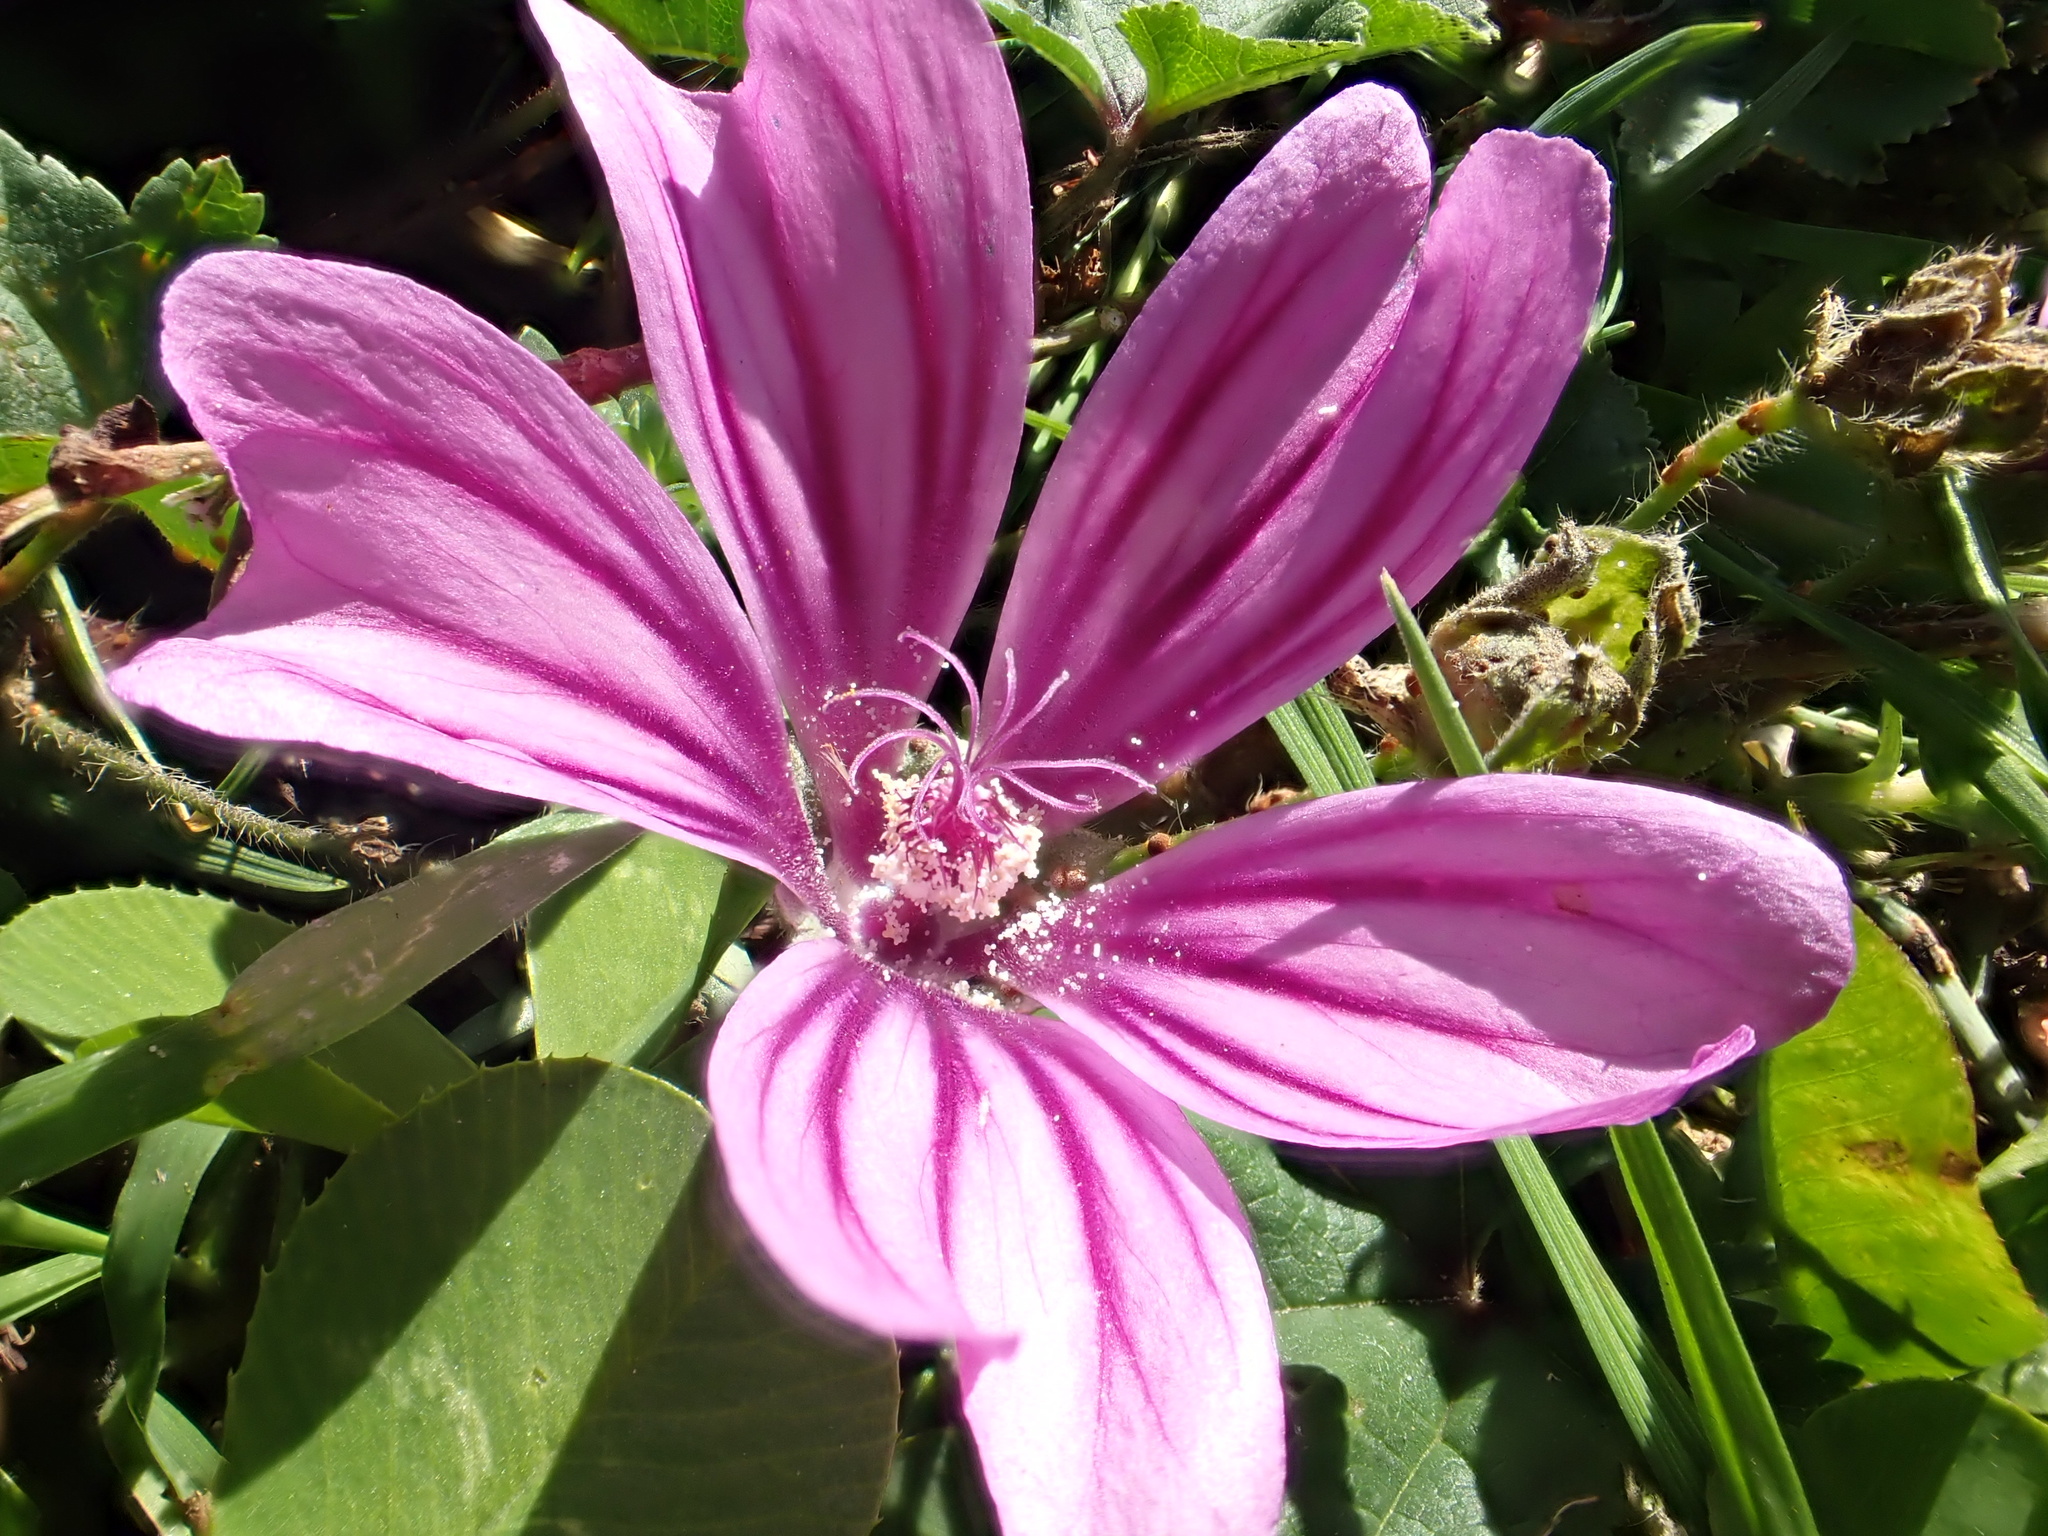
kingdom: Plantae
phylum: Tracheophyta
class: Magnoliopsida
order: Malvales
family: Malvaceae
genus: Malva
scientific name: Malva sylvestris
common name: Common mallow
